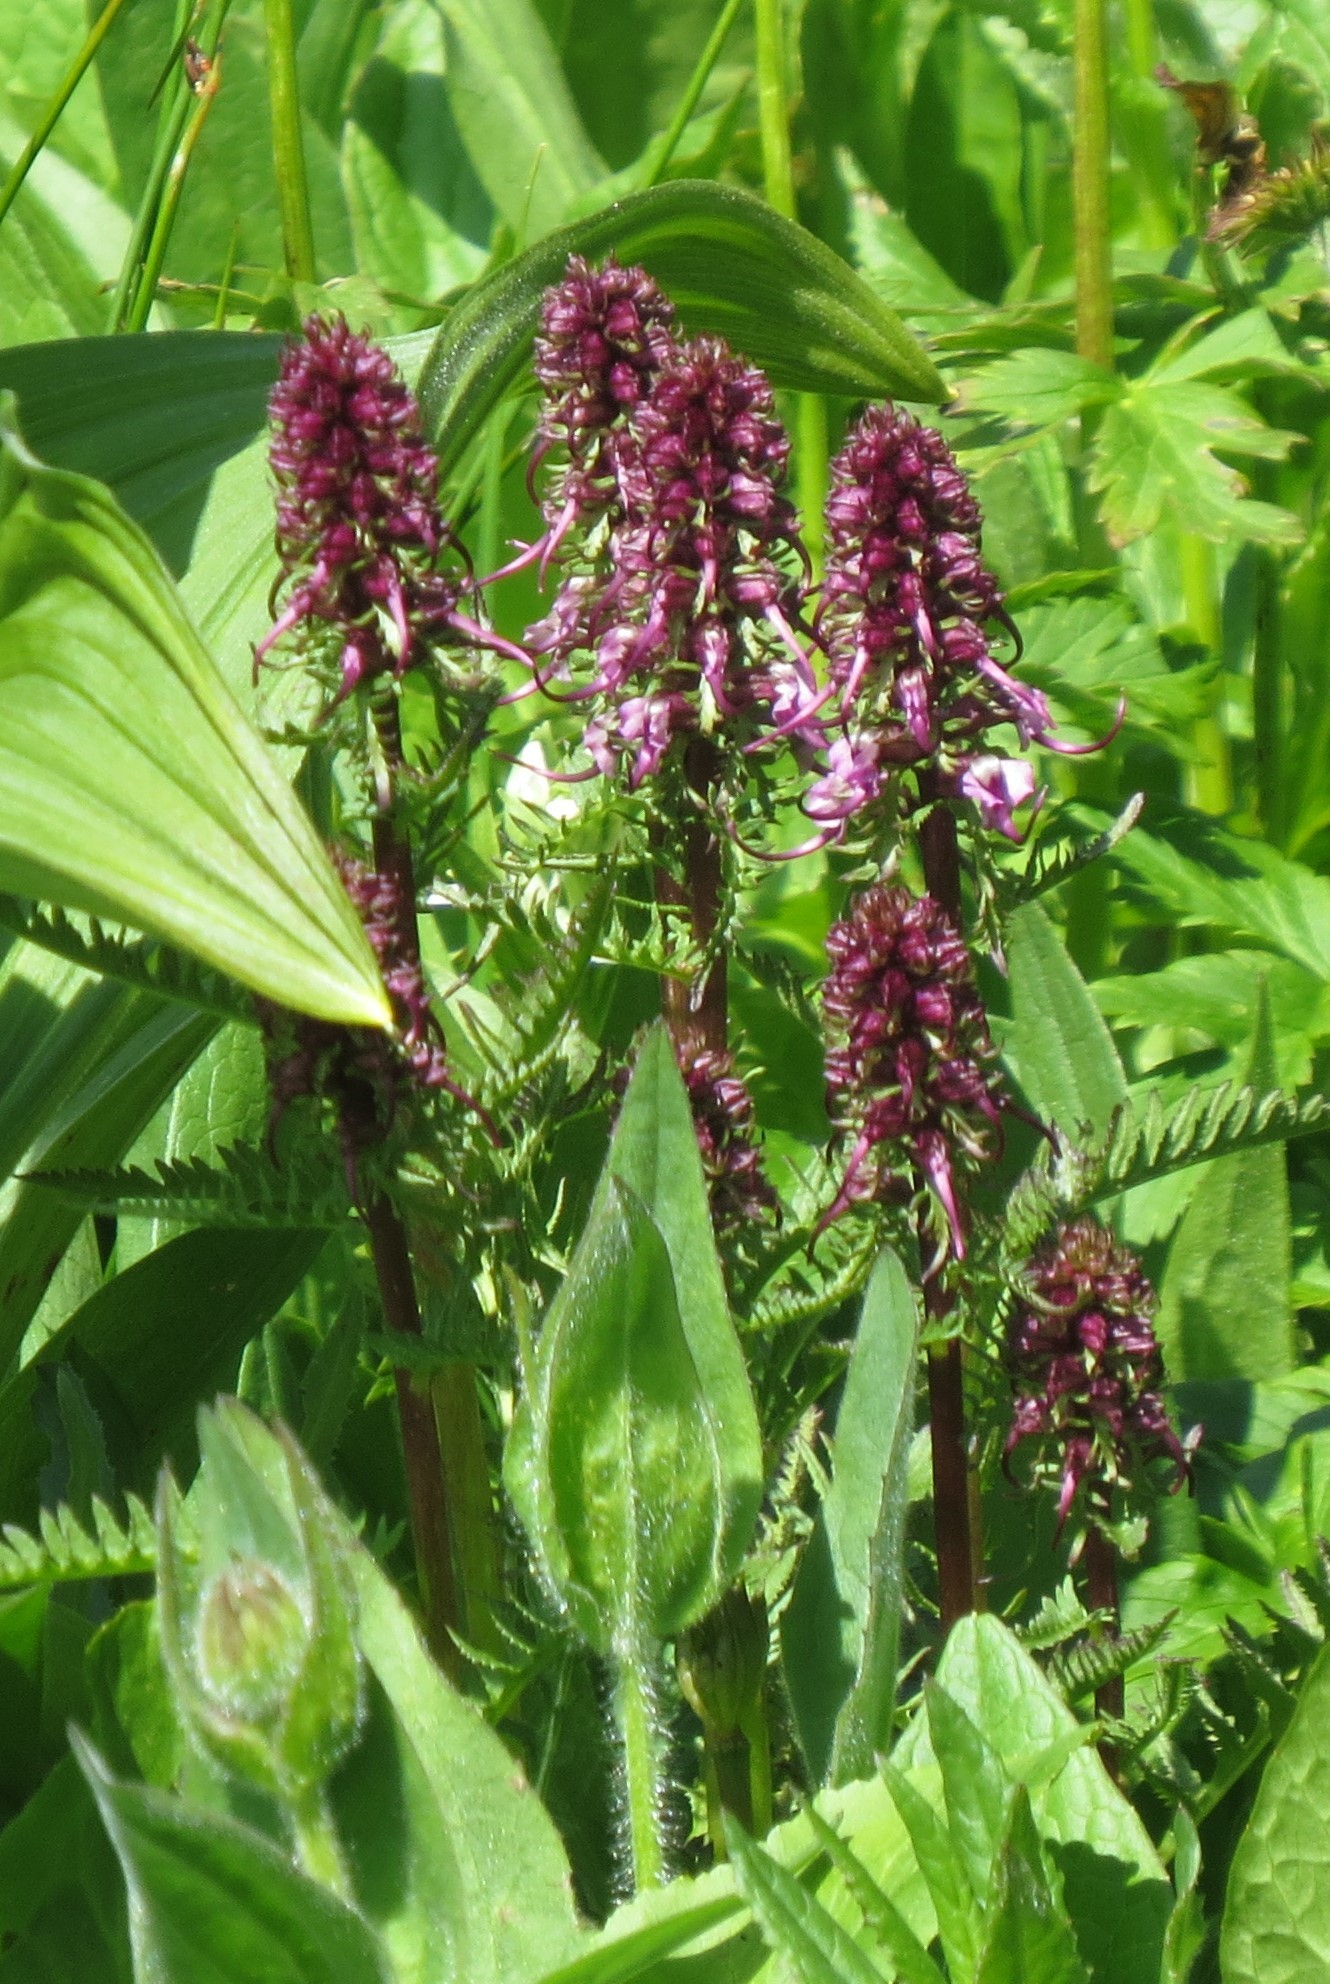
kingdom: Plantae
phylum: Tracheophyta
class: Magnoliopsida
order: Lamiales
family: Orobanchaceae
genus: Pedicularis
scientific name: Pedicularis groenlandica
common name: Elephant's-head
